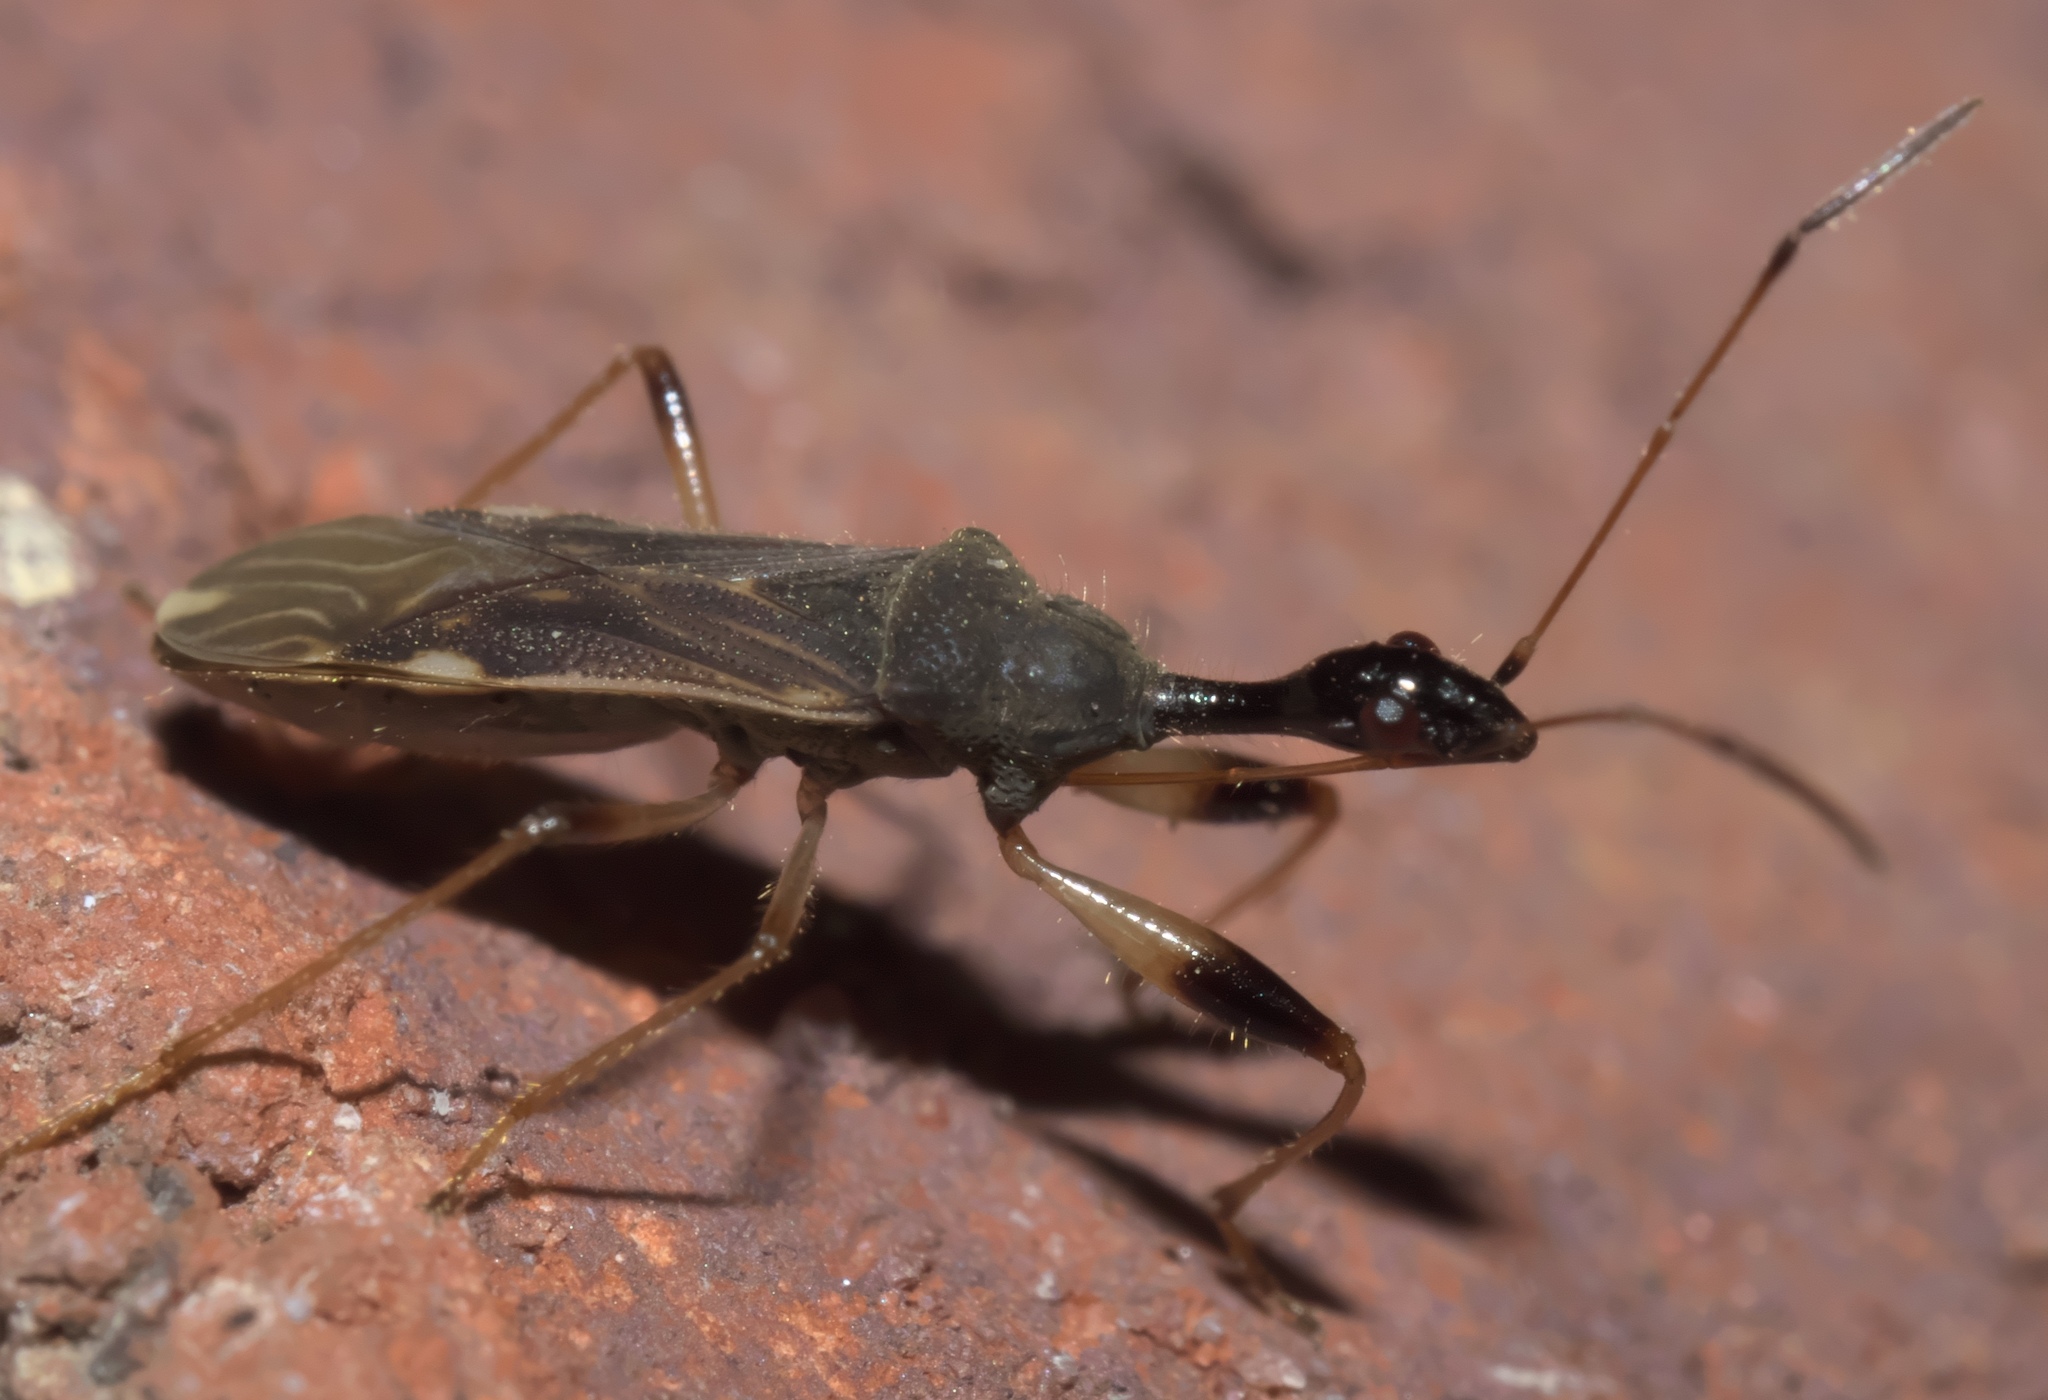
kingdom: Animalia
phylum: Arthropoda
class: Insecta
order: Hemiptera
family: Rhyparochromidae
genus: Myodocha
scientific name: Myodocha serripes
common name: Long-necked seed bug
